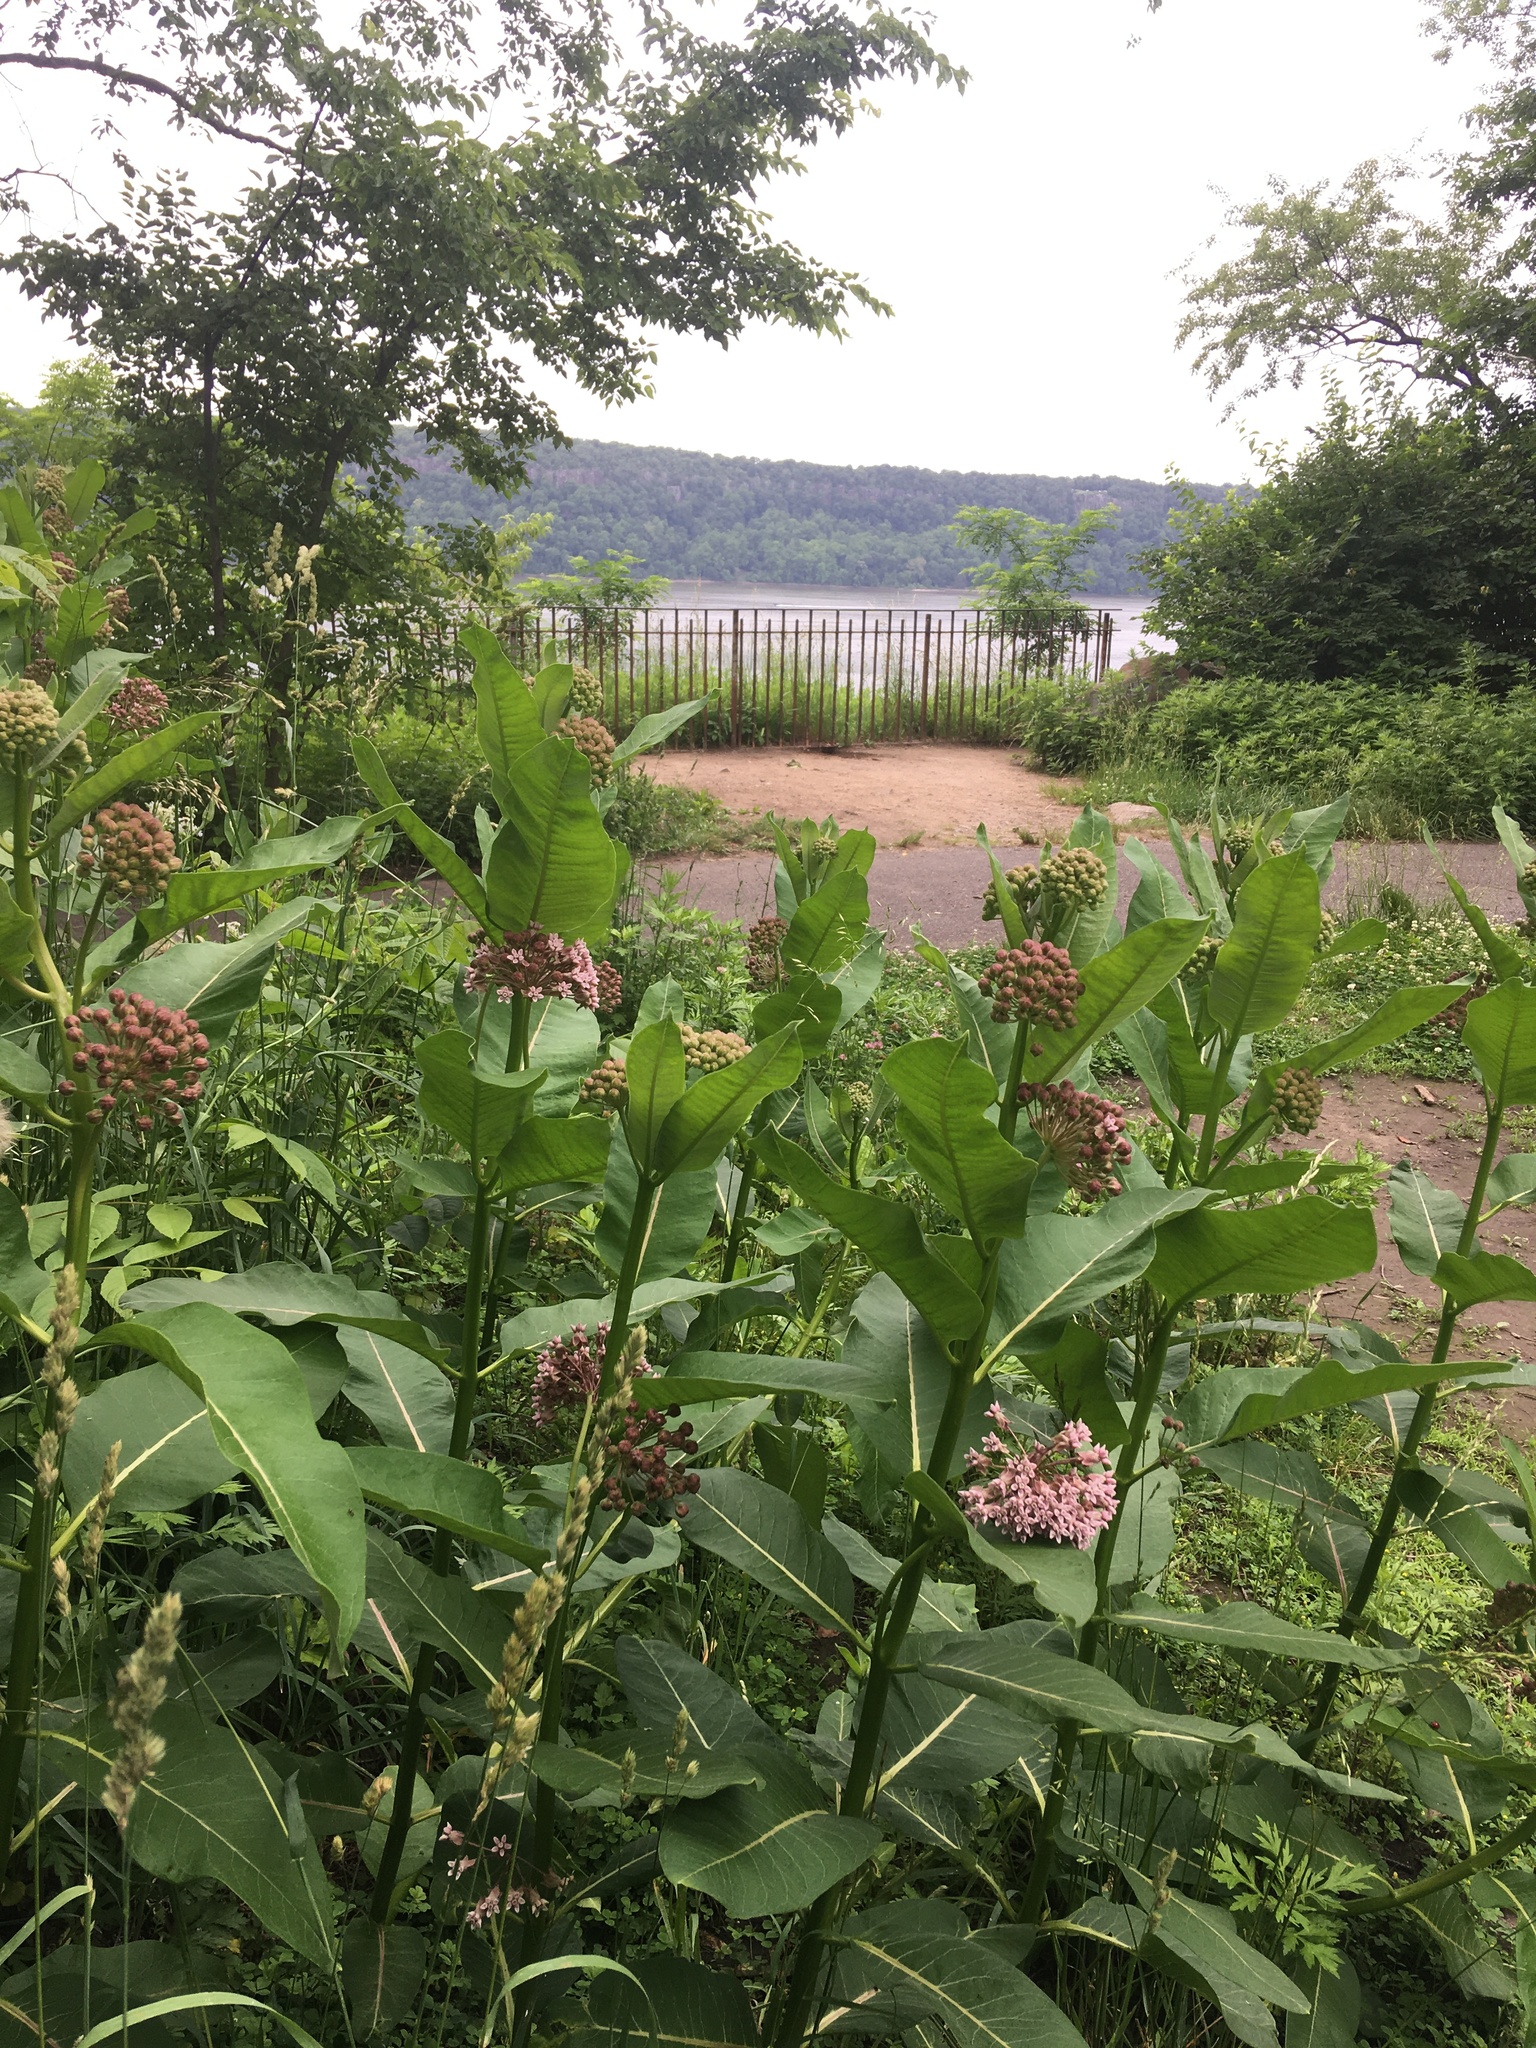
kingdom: Plantae
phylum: Tracheophyta
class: Magnoliopsida
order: Gentianales
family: Apocynaceae
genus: Asclepias
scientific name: Asclepias syriaca
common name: Common milkweed
